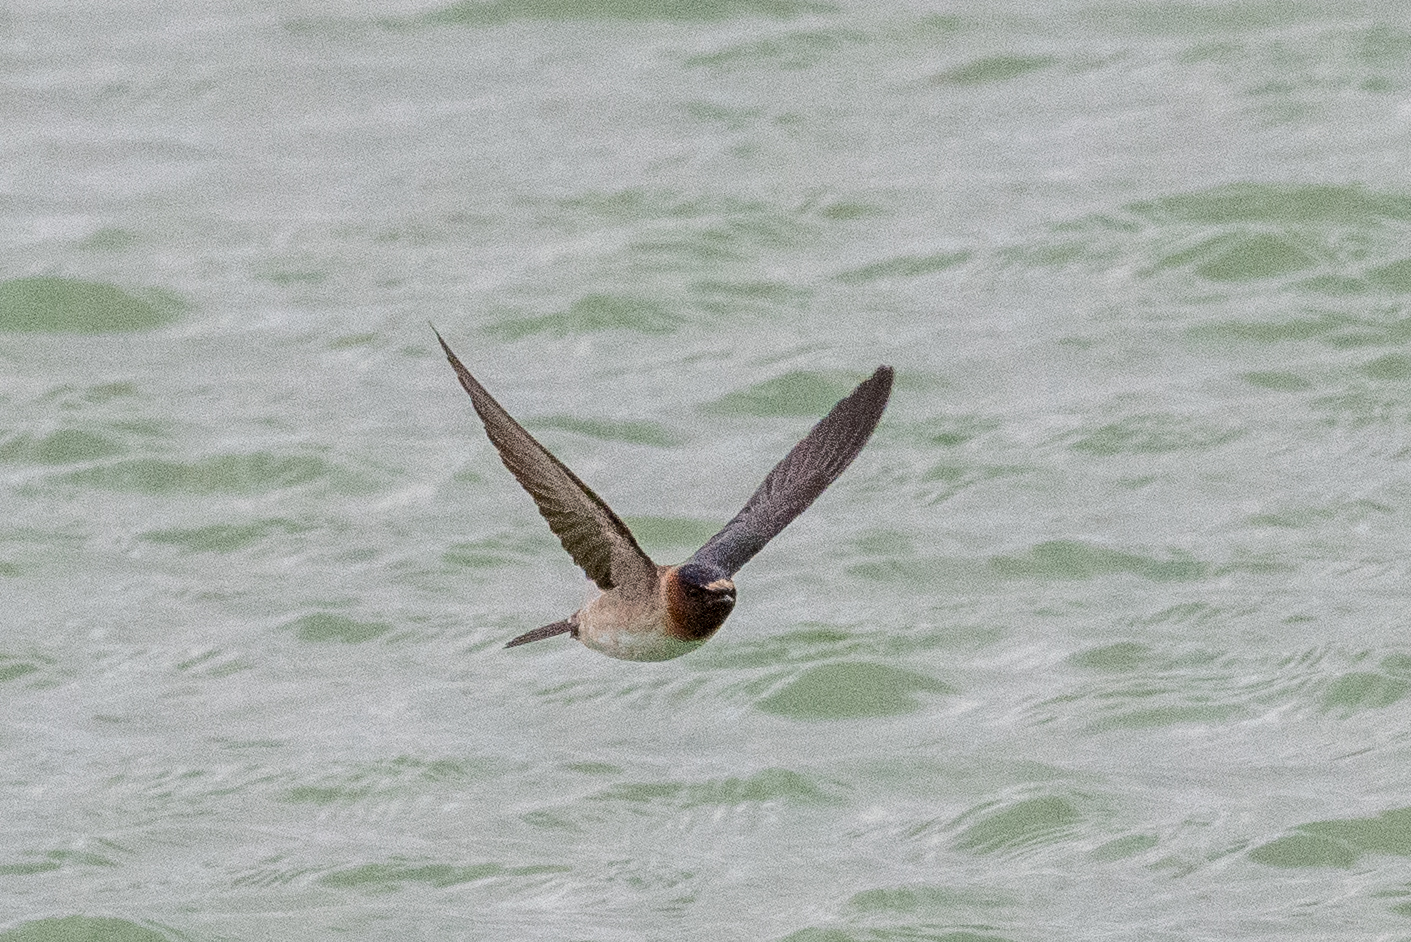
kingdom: Animalia
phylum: Chordata
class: Aves
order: Passeriformes
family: Hirundinidae
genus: Petrochelidon
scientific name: Petrochelidon pyrrhonota
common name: American cliff swallow
